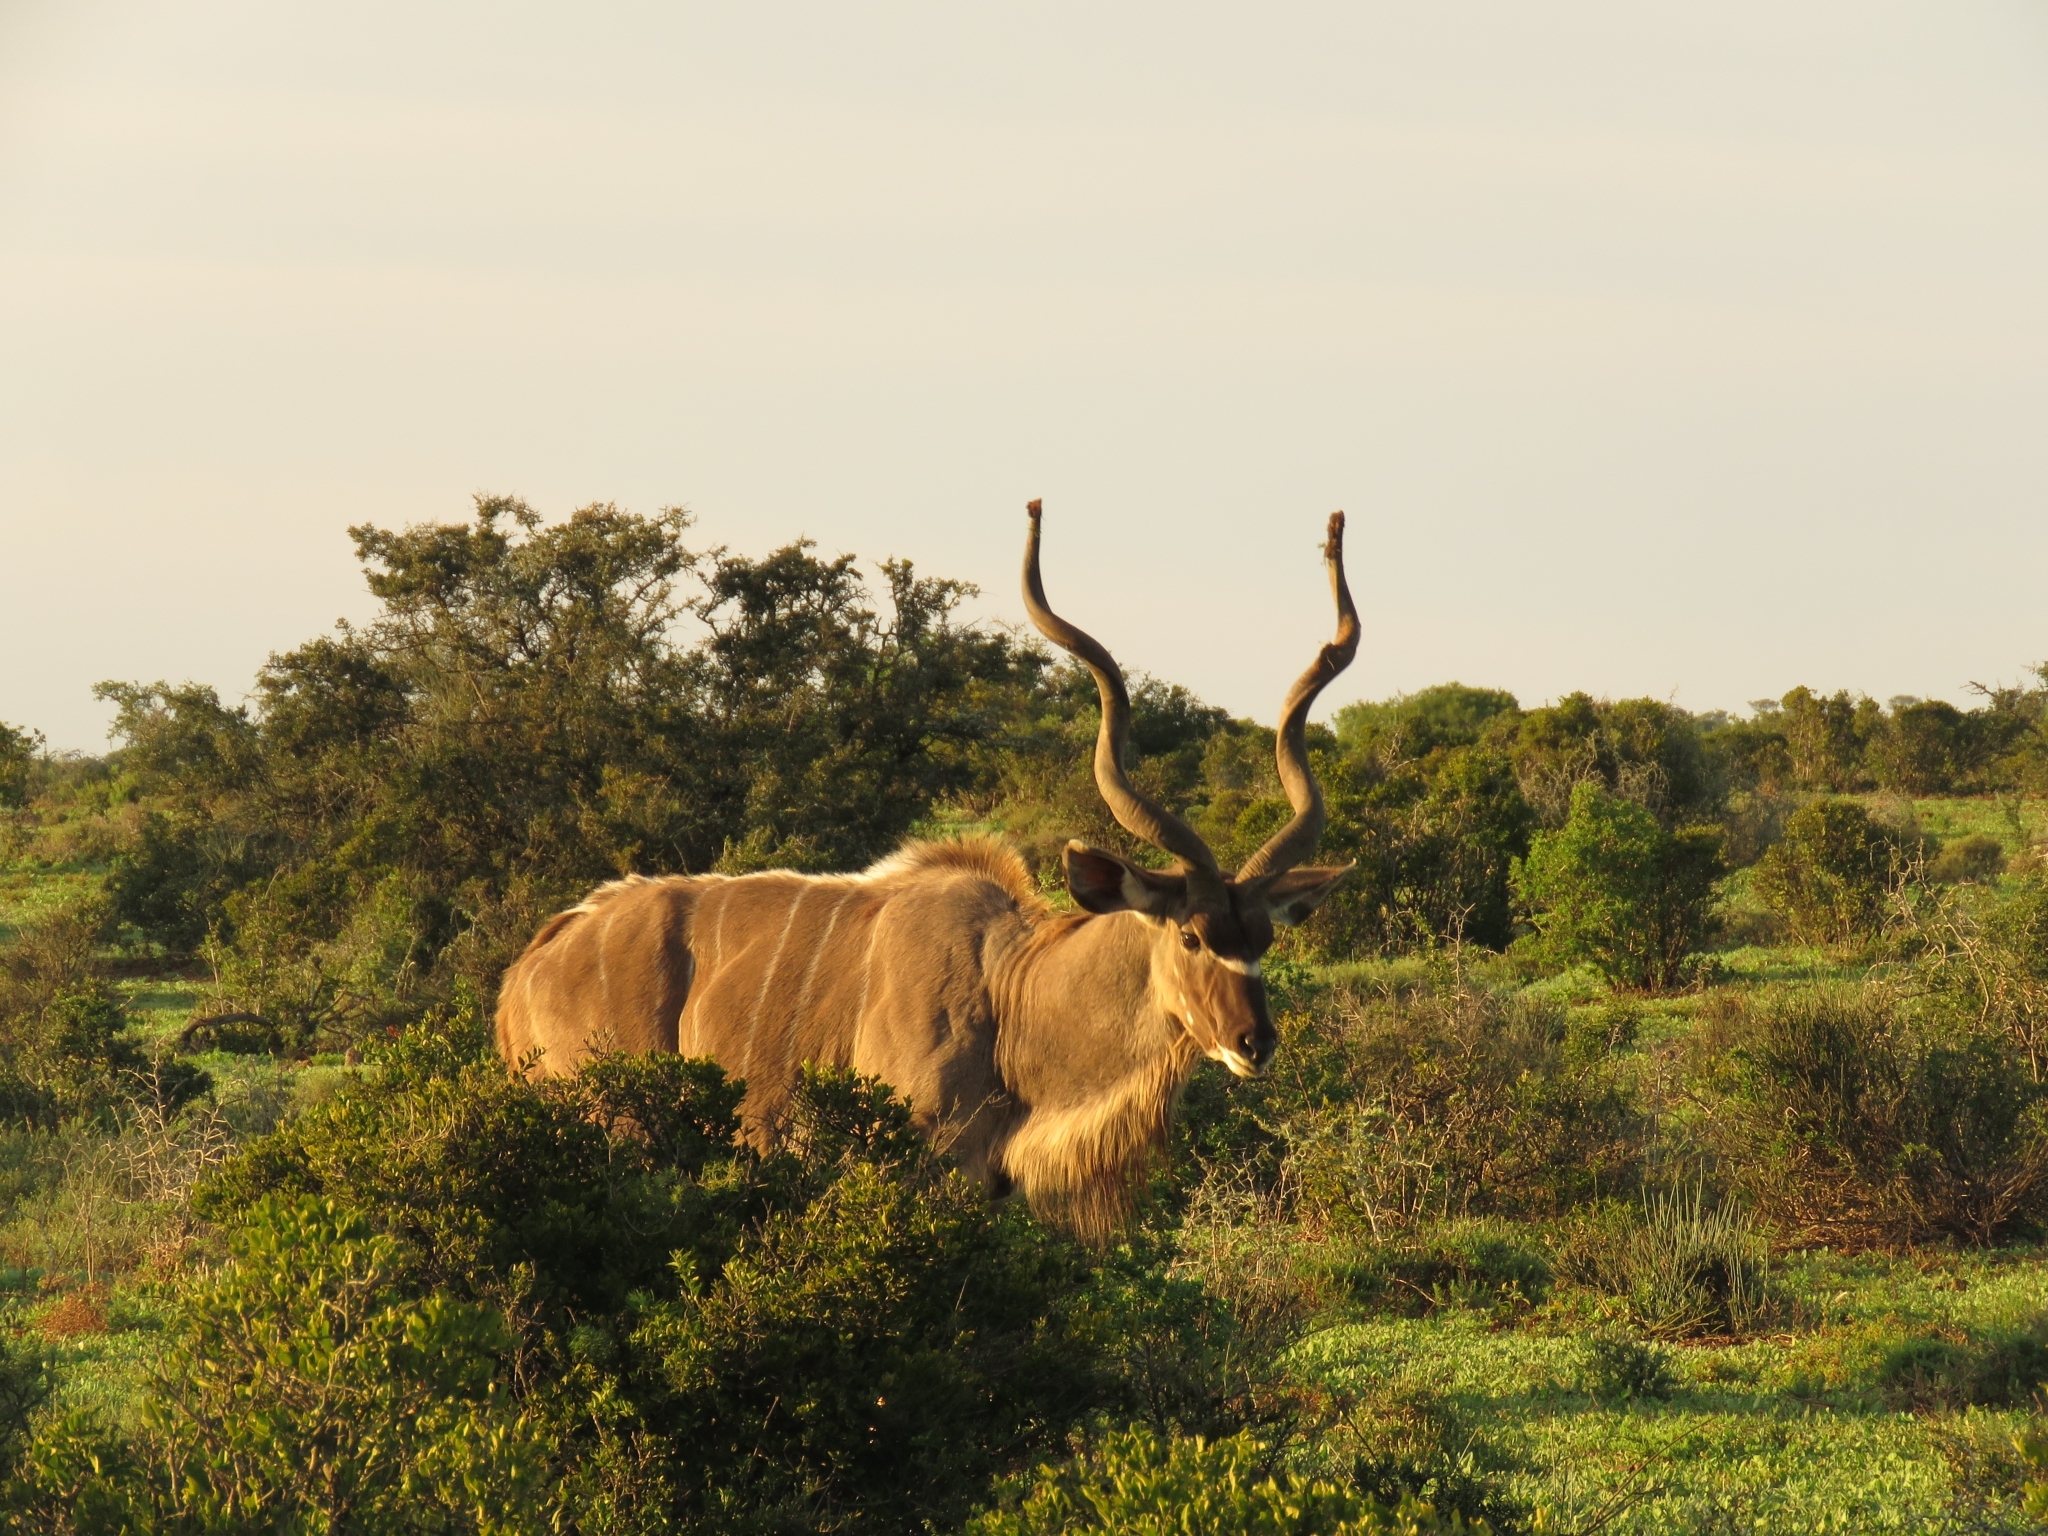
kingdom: Animalia
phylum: Chordata
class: Mammalia
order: Artiodactyla
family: Bovidae
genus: Tragelaphus
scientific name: Tragelaphus strepsiceros
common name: Greater kudu
